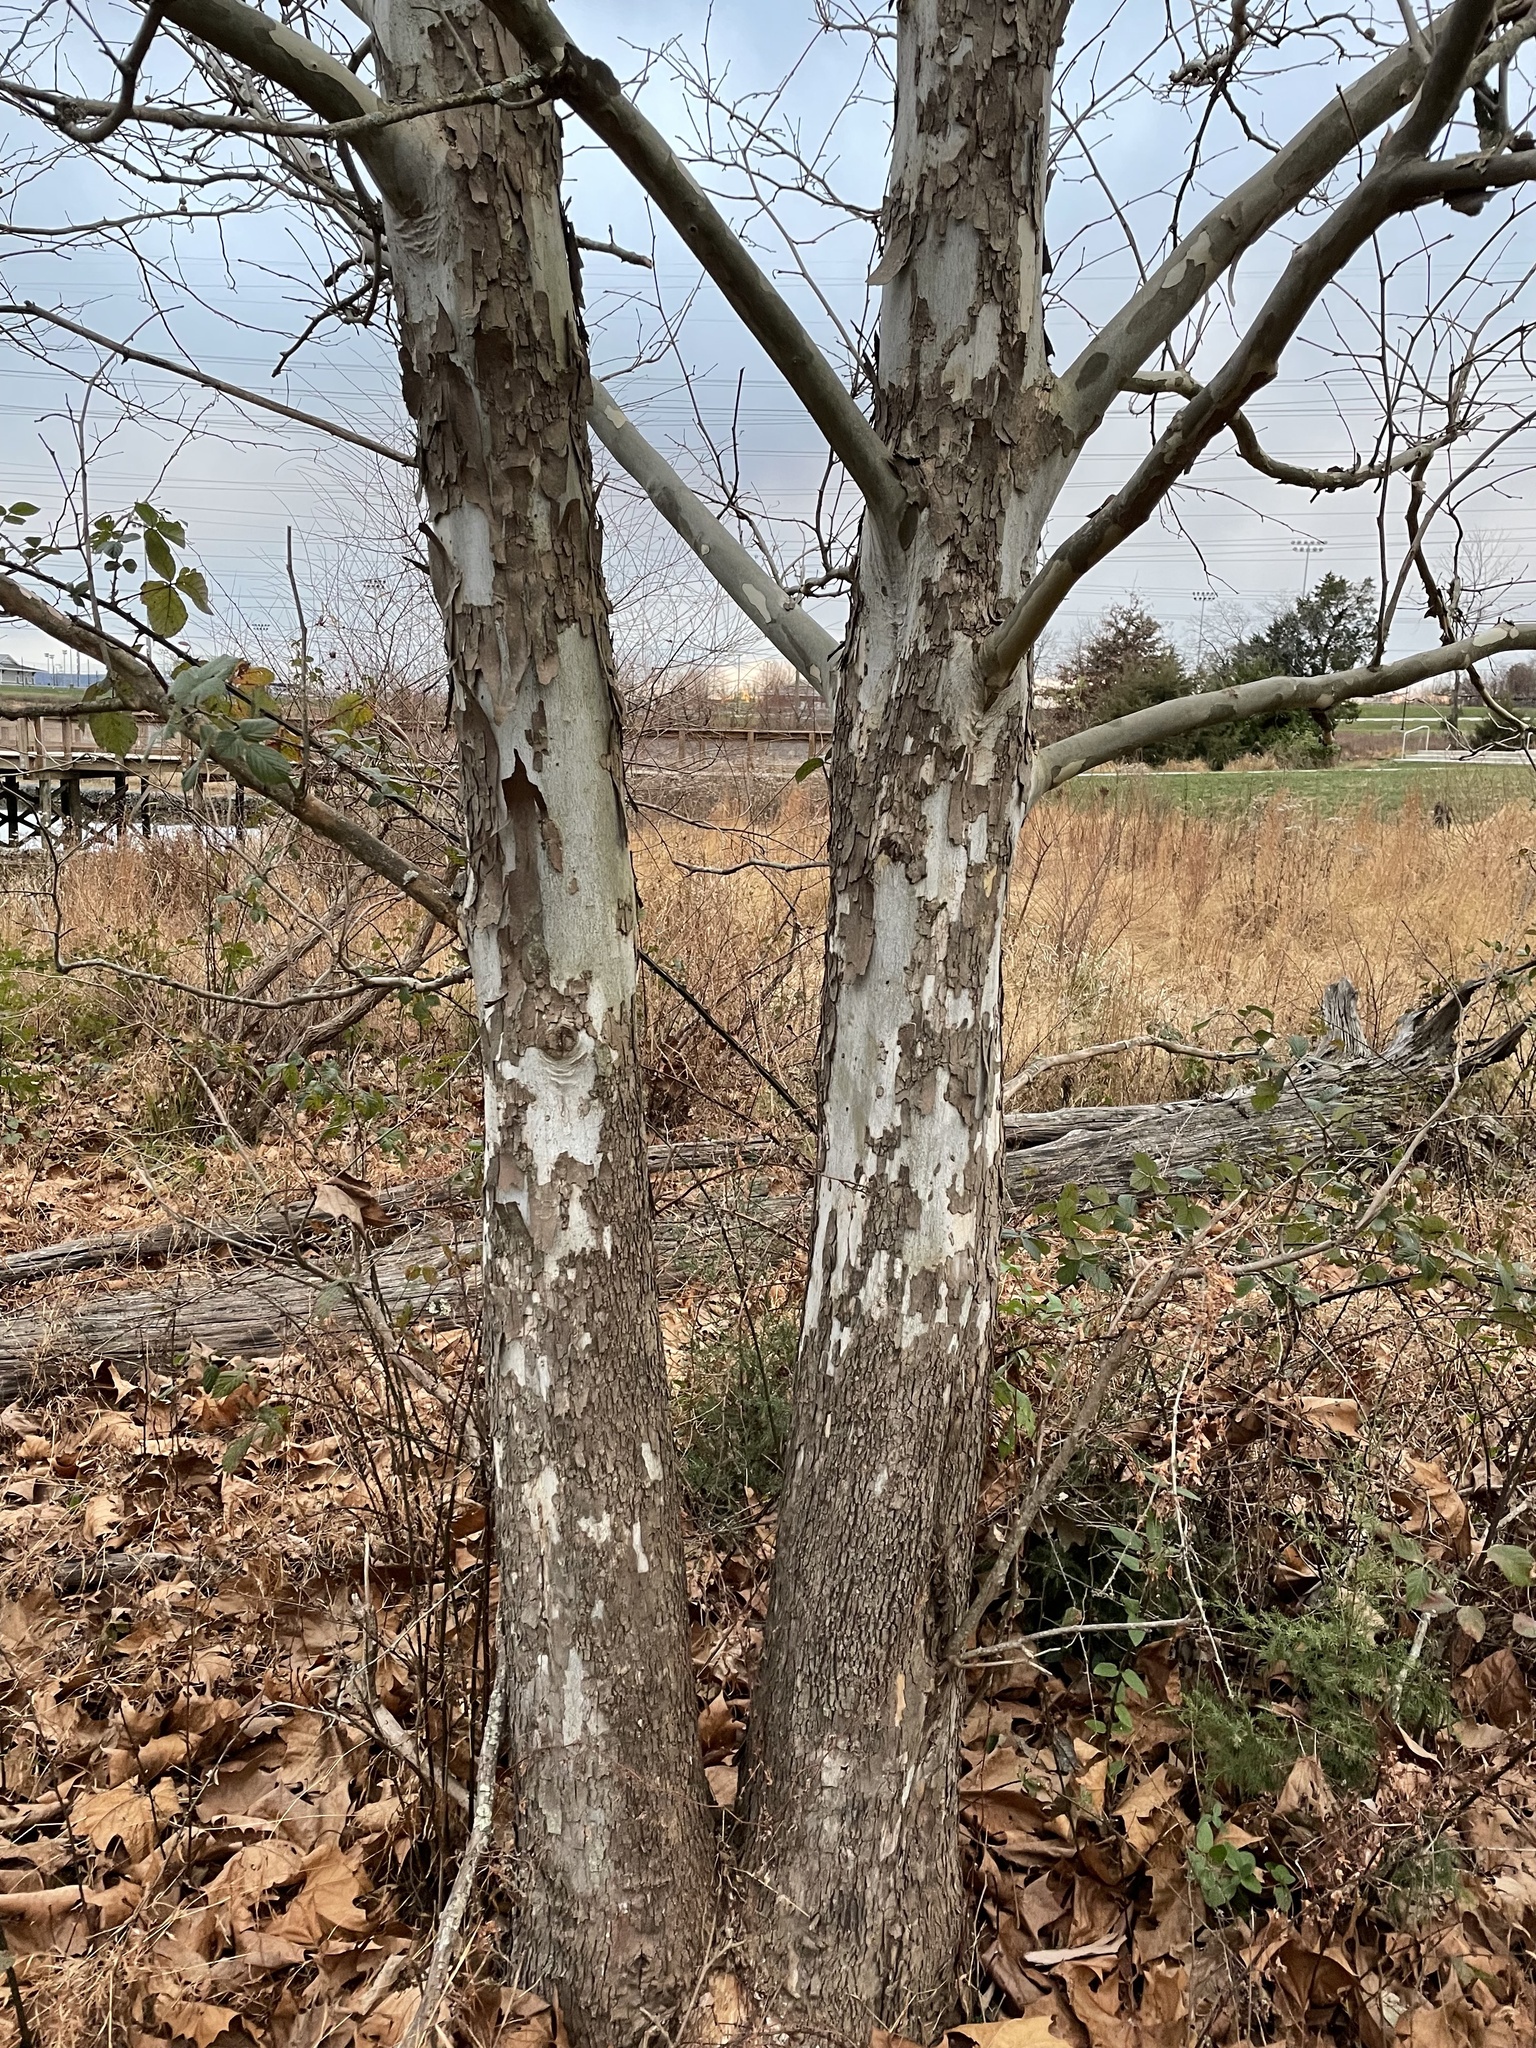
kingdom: Plantae
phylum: Tracheophyta
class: Magnoliopsida
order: Proteales
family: Platanaceae
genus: Platanus
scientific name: Platanus occidentalis
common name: American sycamore
